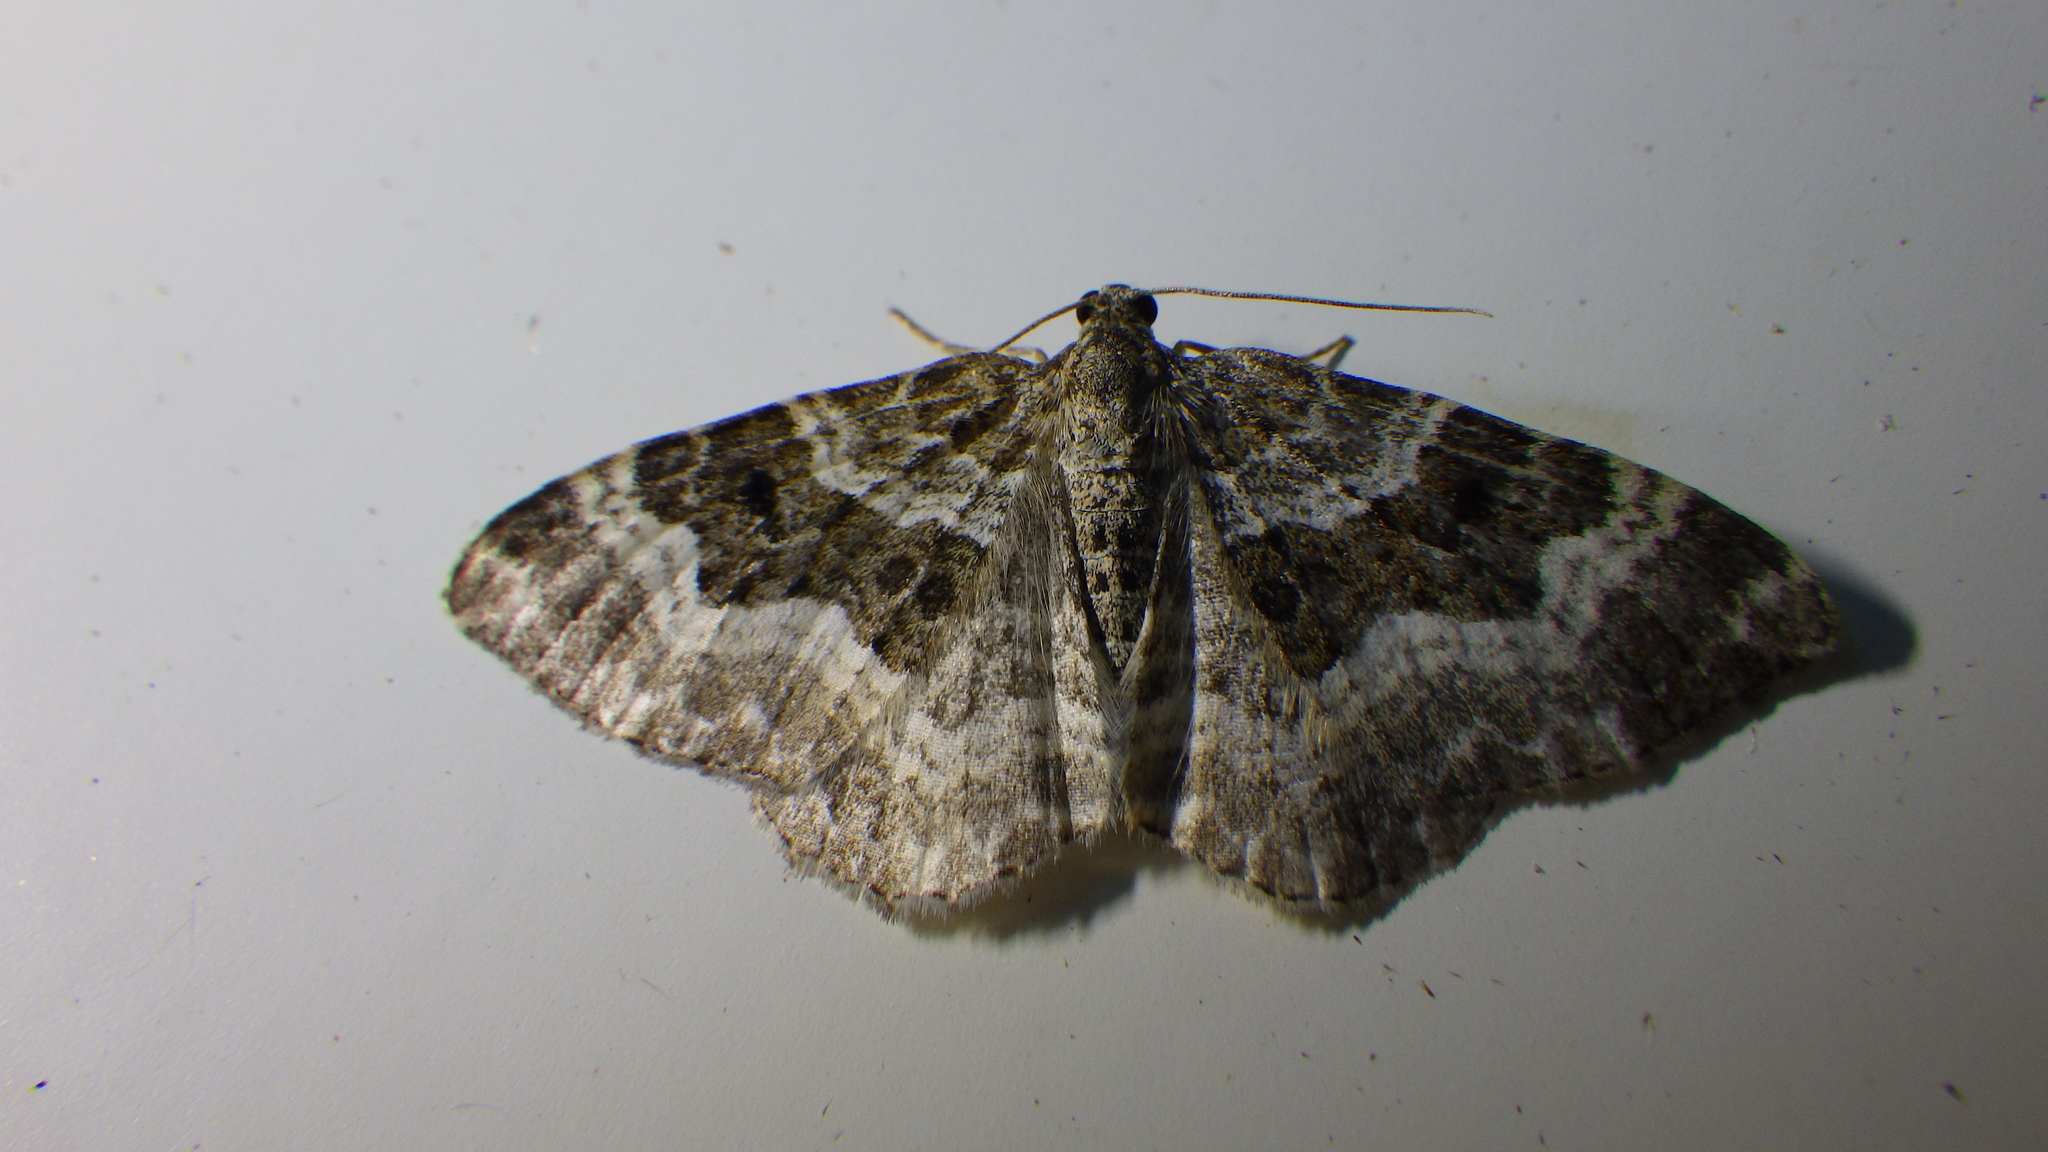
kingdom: Animalia
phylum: Arthropoda
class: Insecta
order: Lepidoptera
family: Geometridae
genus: Epirrhoe
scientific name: Epirrhoe alternata
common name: Common carpet
